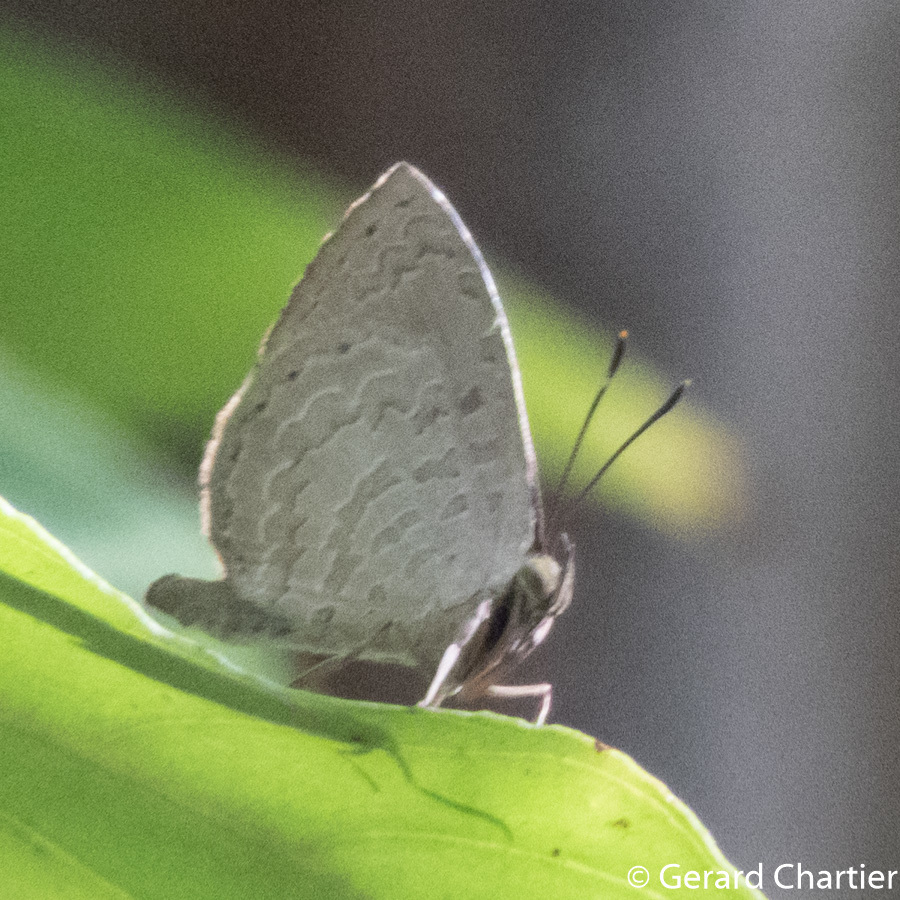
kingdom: Animalia
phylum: Arthropoda
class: Insecta
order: Lepidoptera
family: Lycaenidae
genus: Miletus
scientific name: Miletus chinensis
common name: Common brownie
